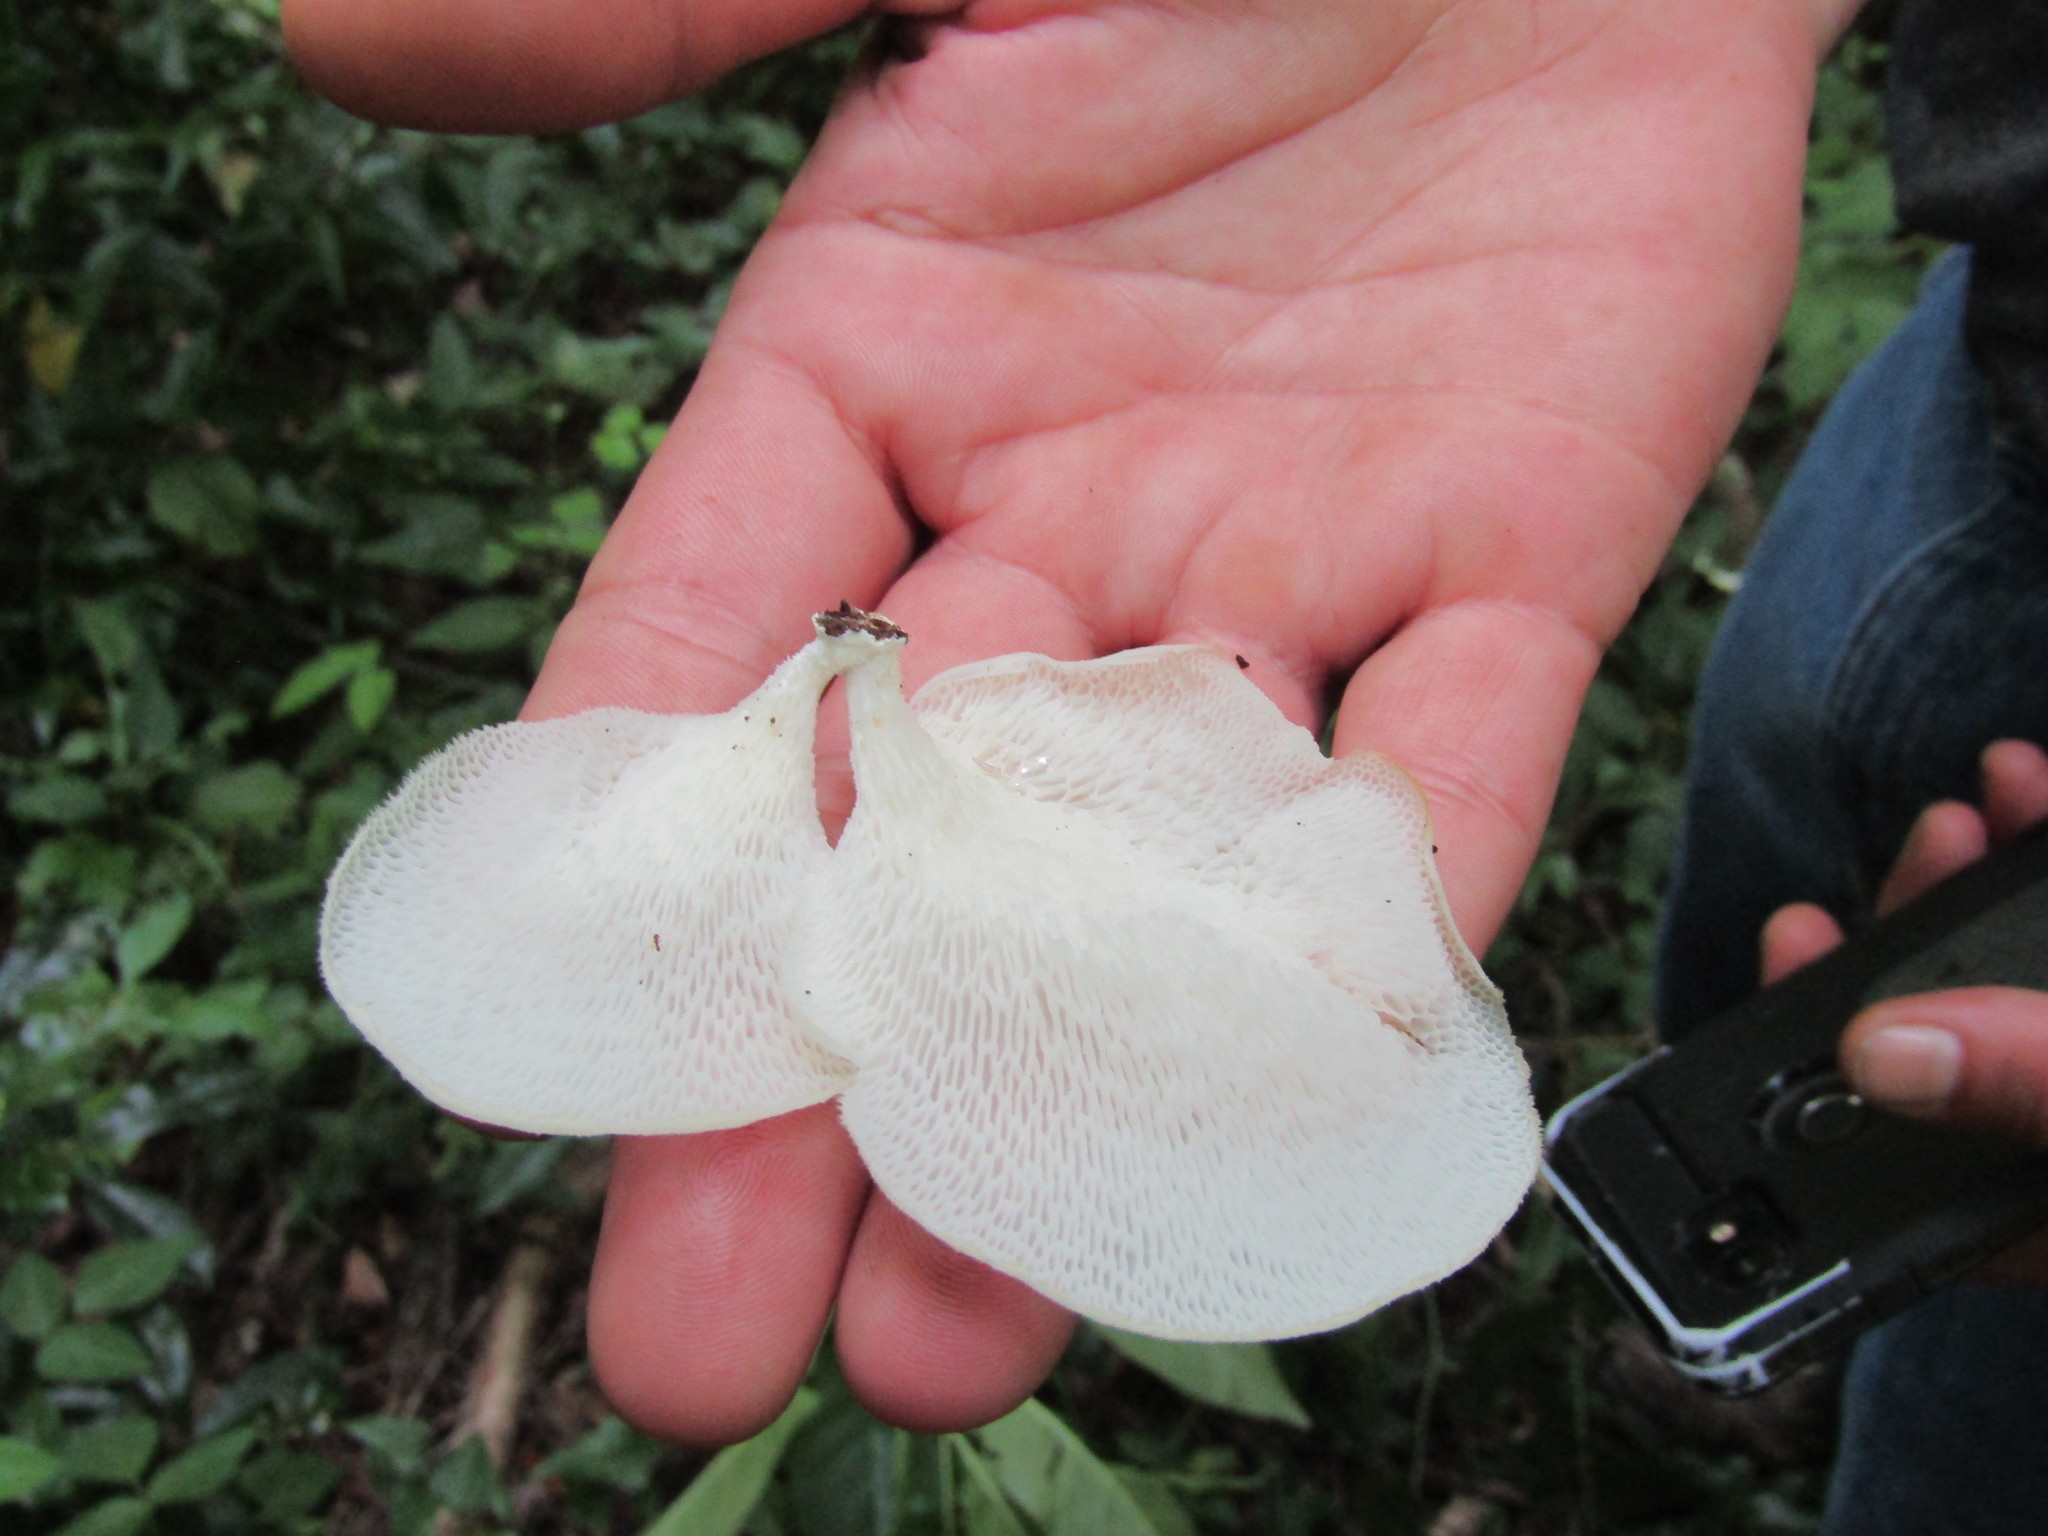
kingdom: Fungi
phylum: Basidiomycota
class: Agaricomycetes
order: Polyporales
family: Polyporaceae
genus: Favolus
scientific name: Favolus tenuiculus
